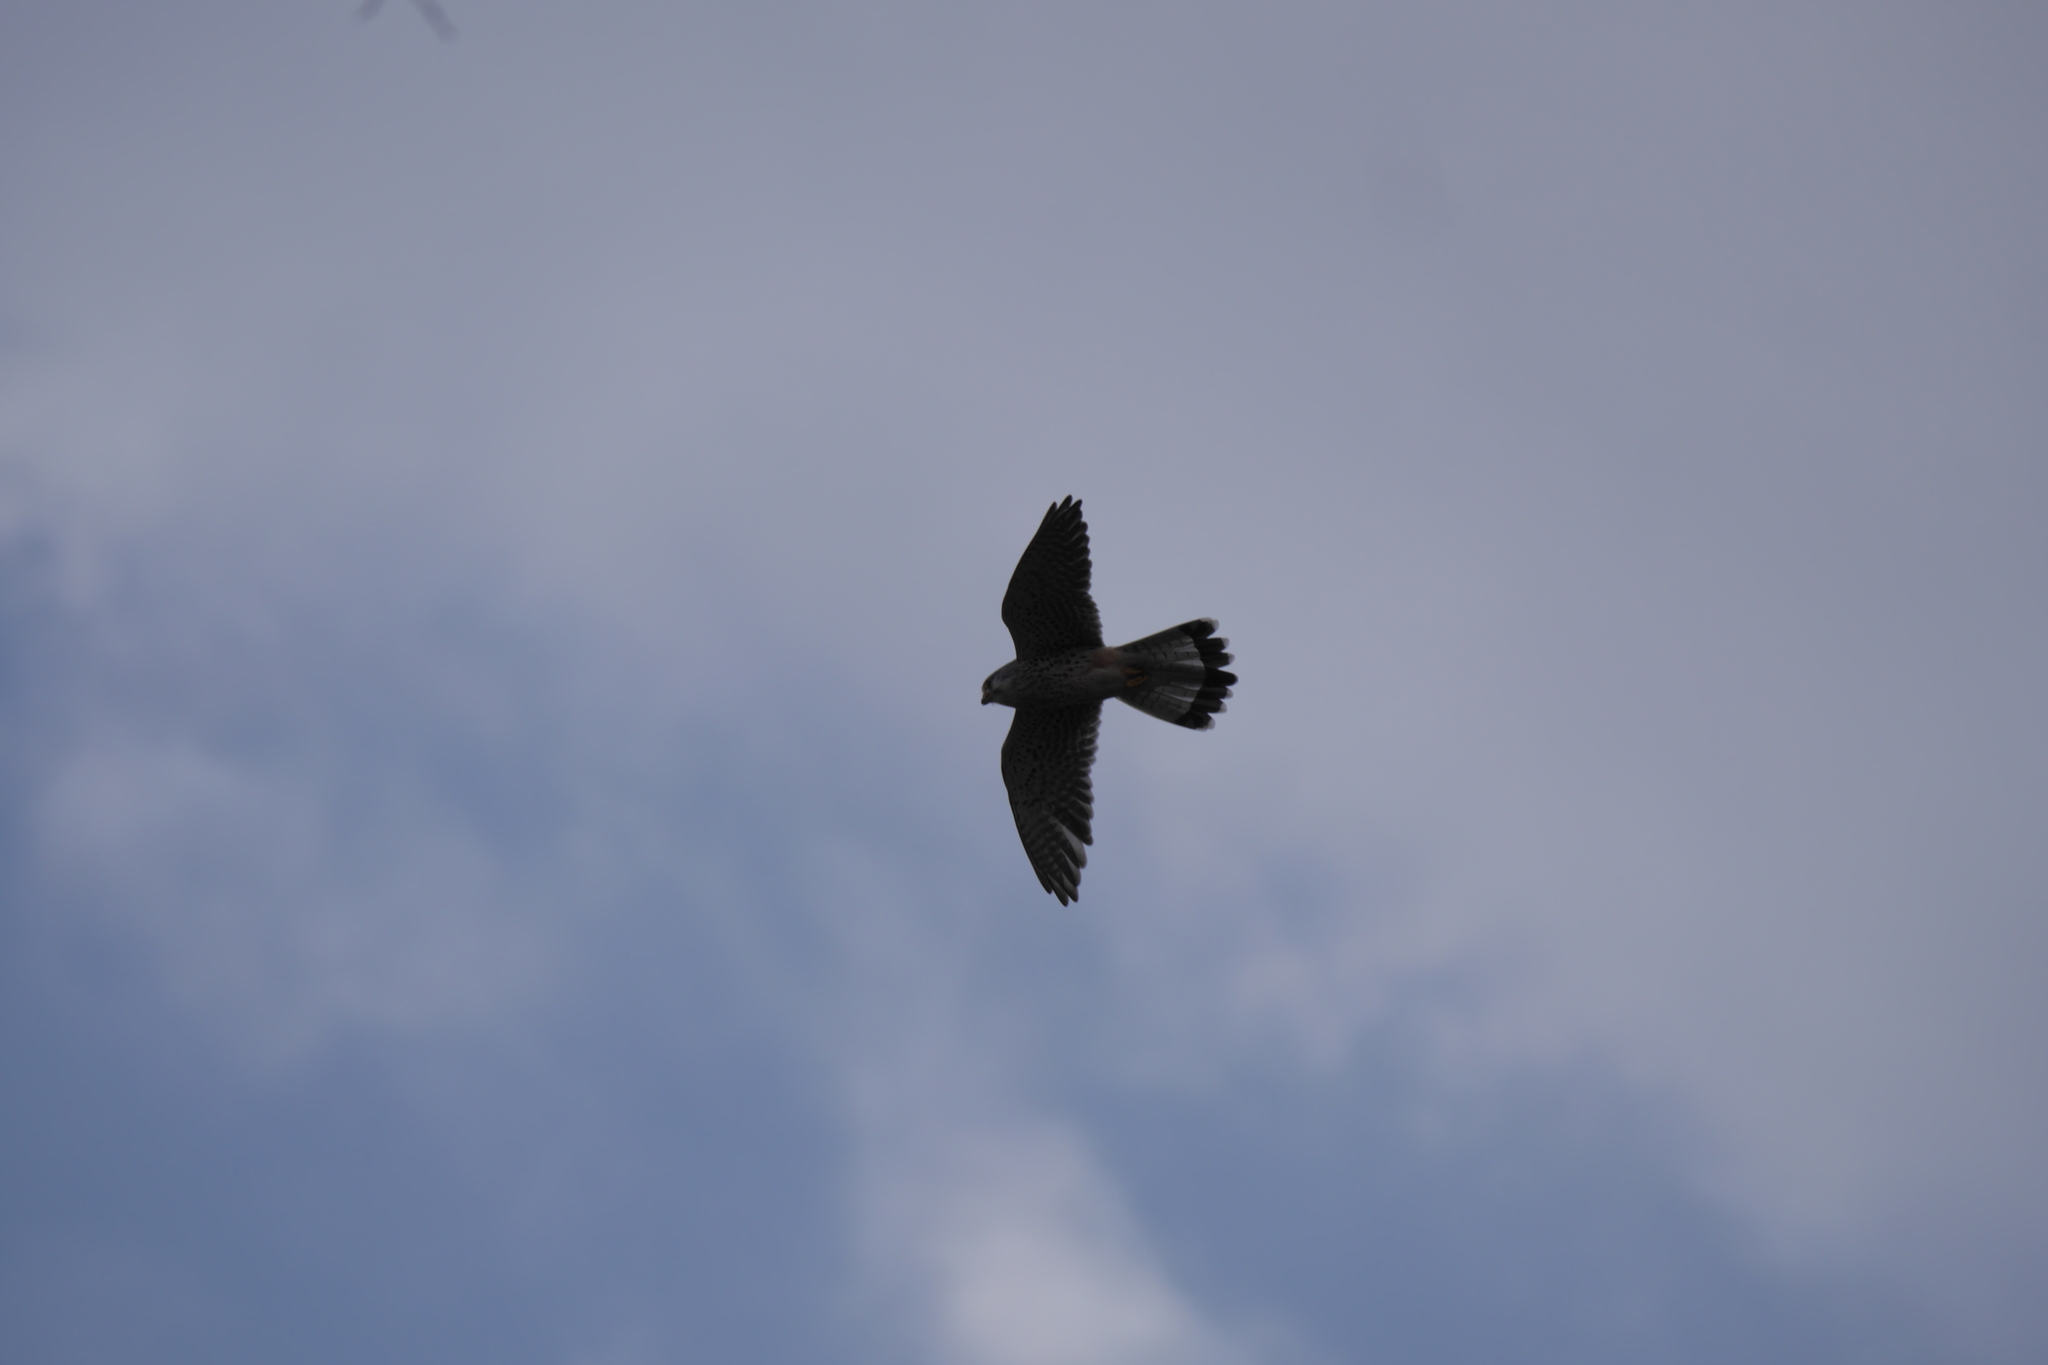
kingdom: Animalia
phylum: Chordata
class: Aves
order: Falconiformes
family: Falconidae
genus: Falco
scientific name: Falco tinnunculus
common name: Common kestrel
